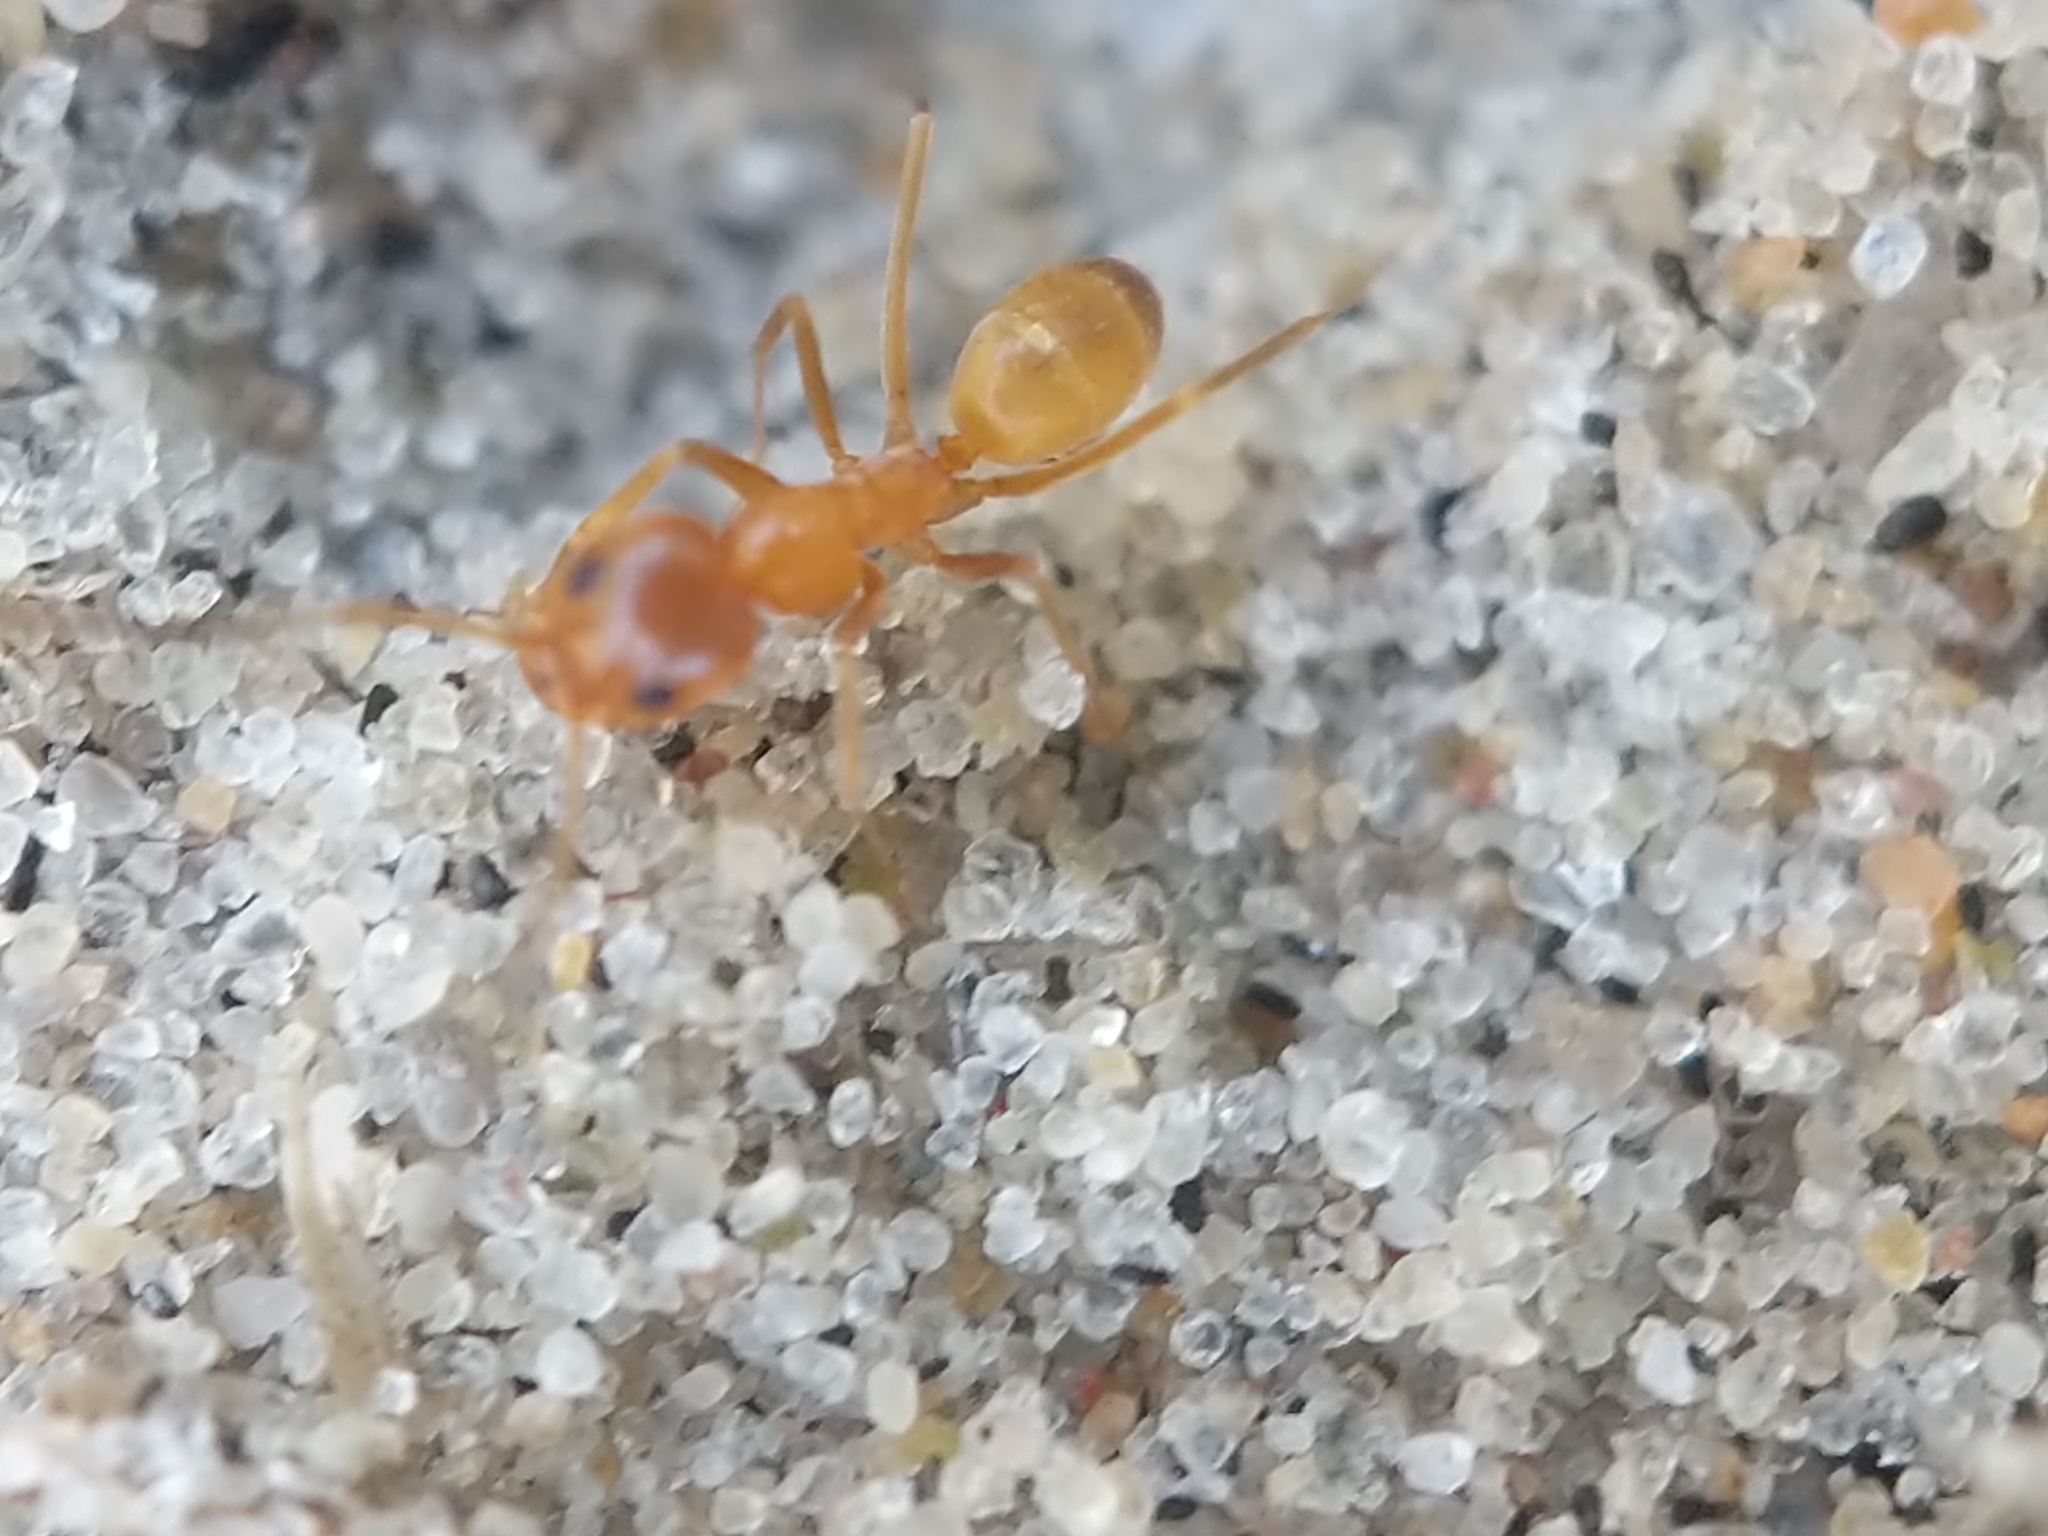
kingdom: Animalia
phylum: Arthropoda
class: Insecta
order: Hymenoptera
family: Formicidae
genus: Dorymyrmex
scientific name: Dorymyrmex bureni
